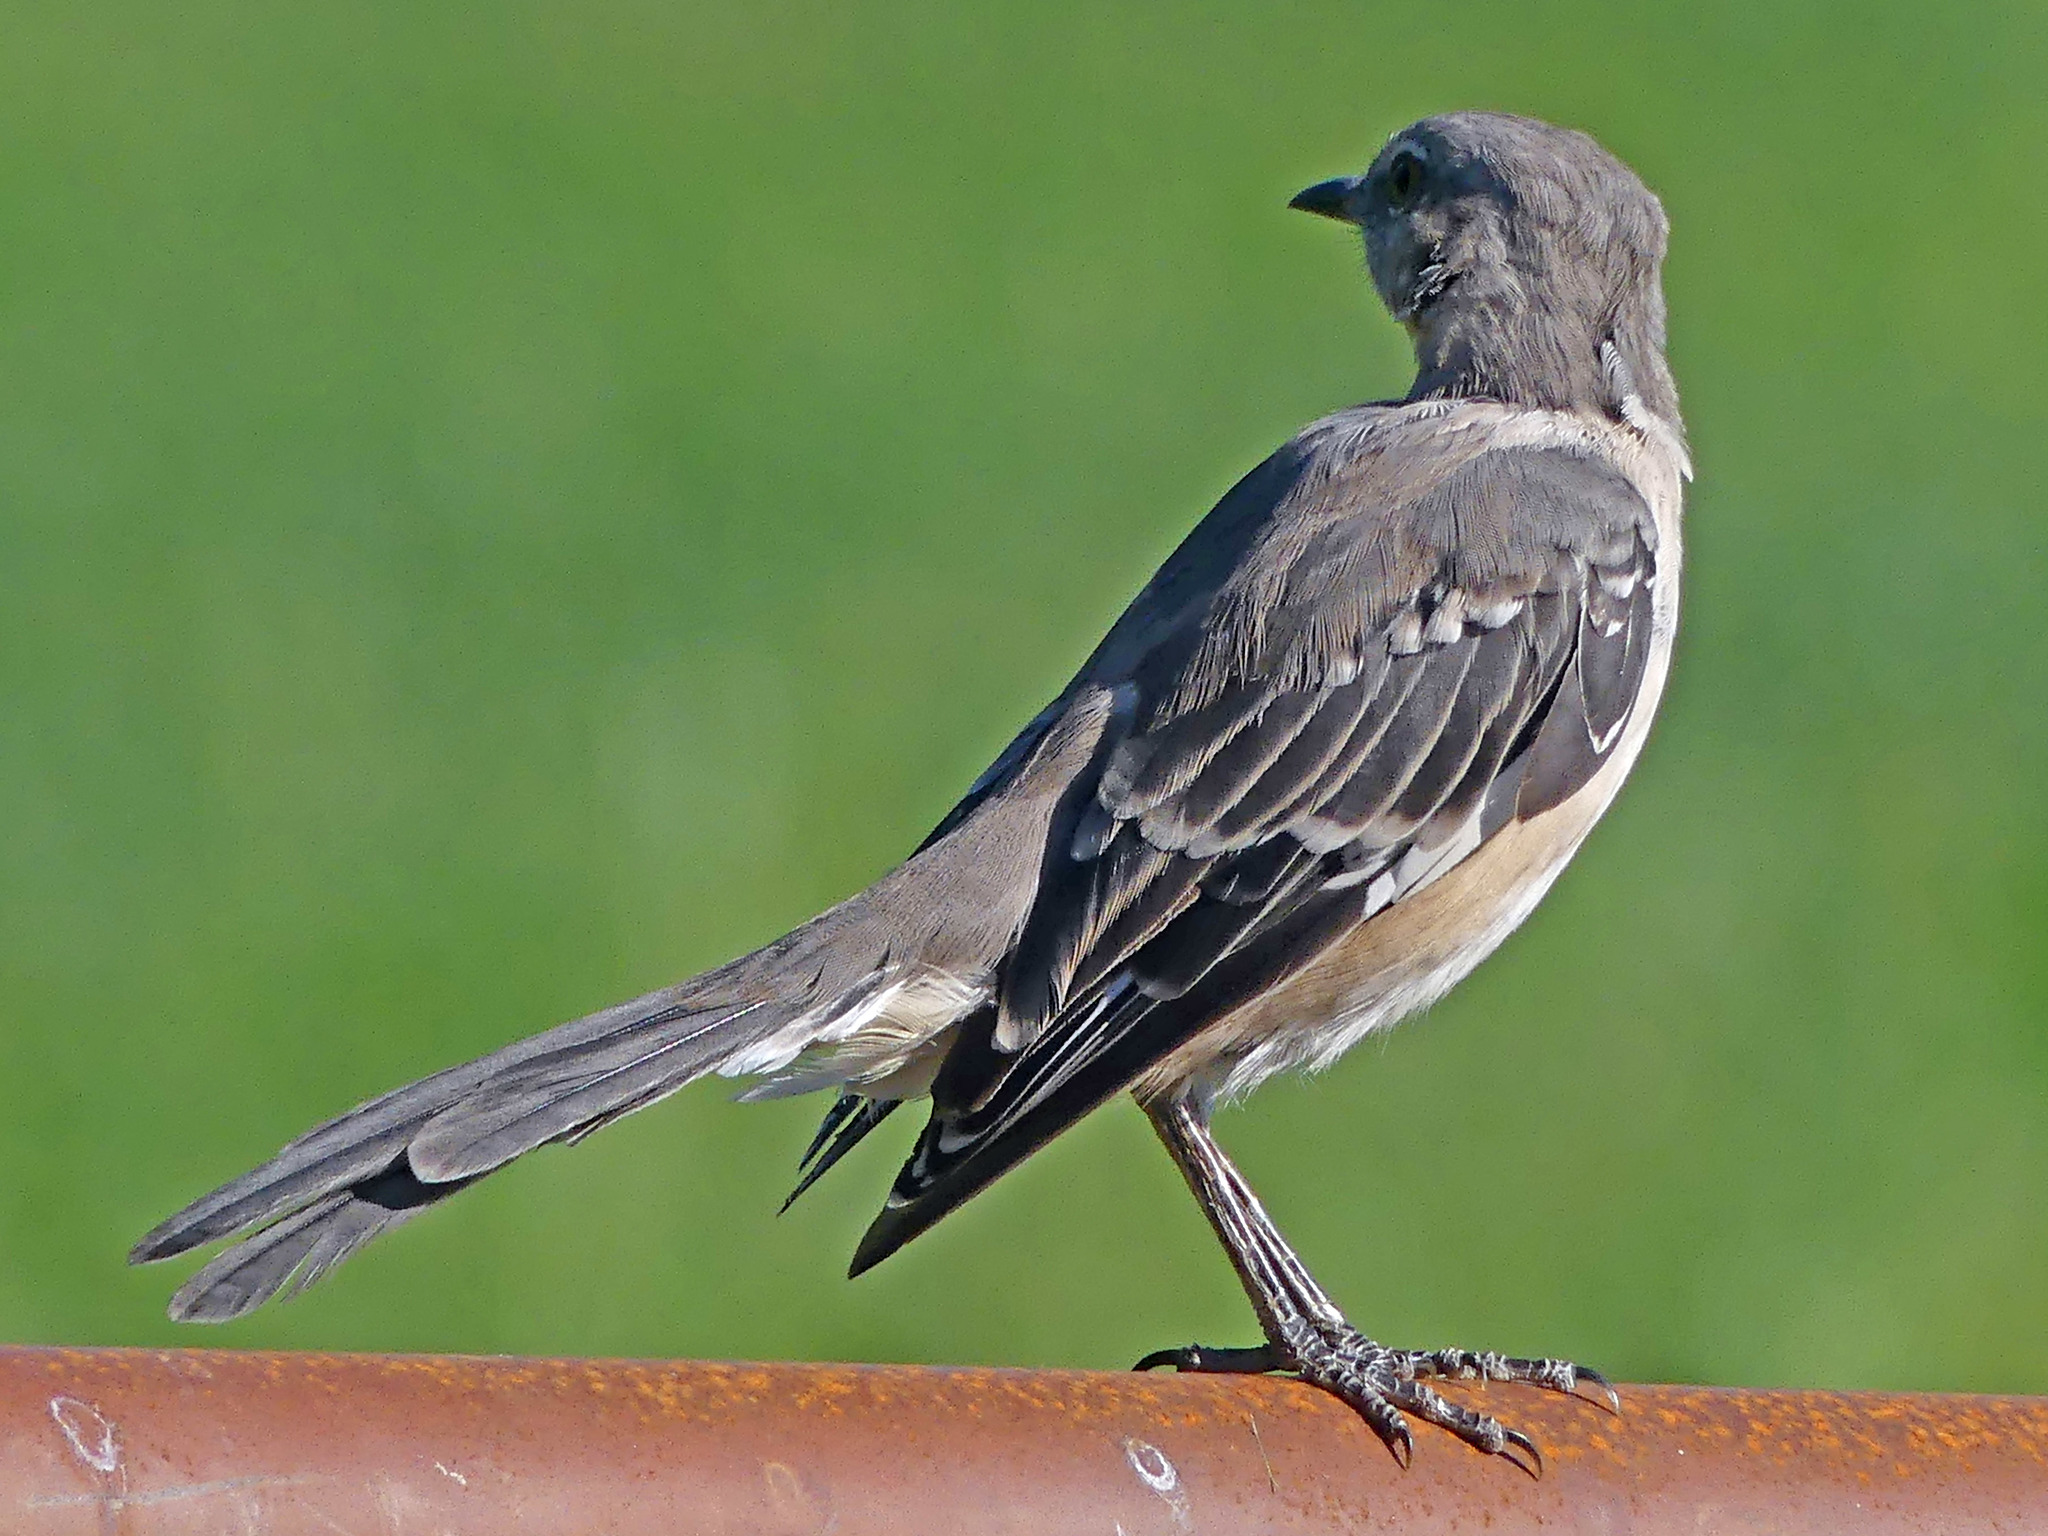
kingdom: Animalia
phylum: Chordata
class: Aves
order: Passeriformes
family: Mimidae
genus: Mimus
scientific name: Mimus polyglottos
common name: Northern mockingbird
